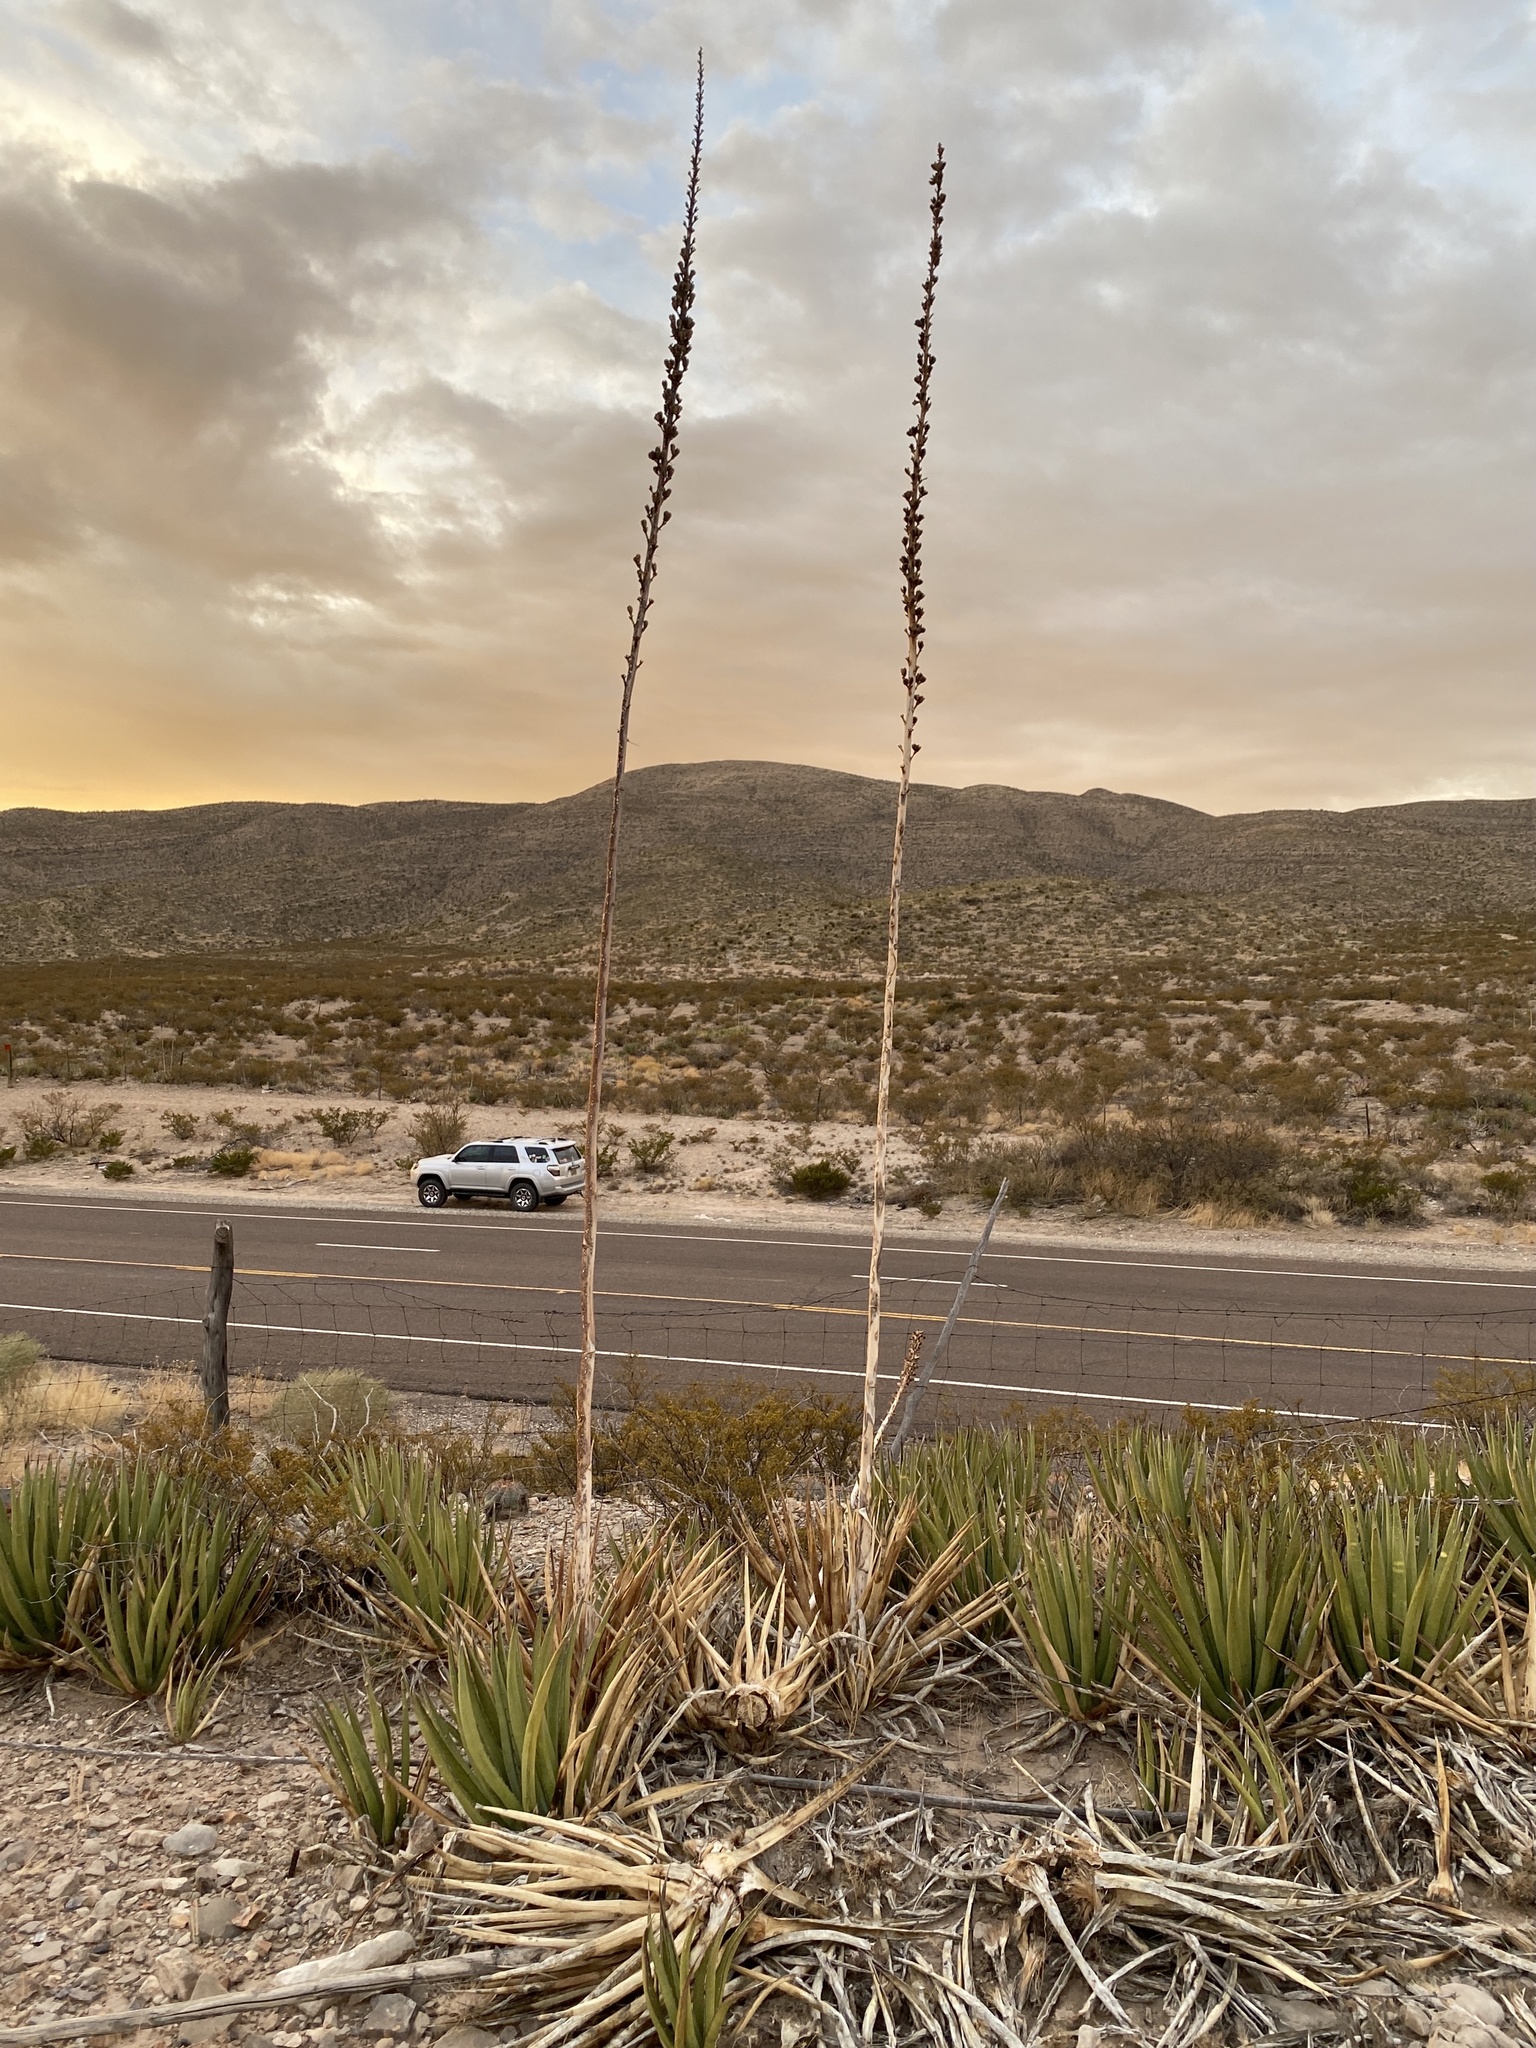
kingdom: Plantae
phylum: Tracheophyta
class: Liliopsida
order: Asparagales
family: Asparagaceae
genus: Agave
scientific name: Agave lechuguilla
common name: Lecheguilla agave
